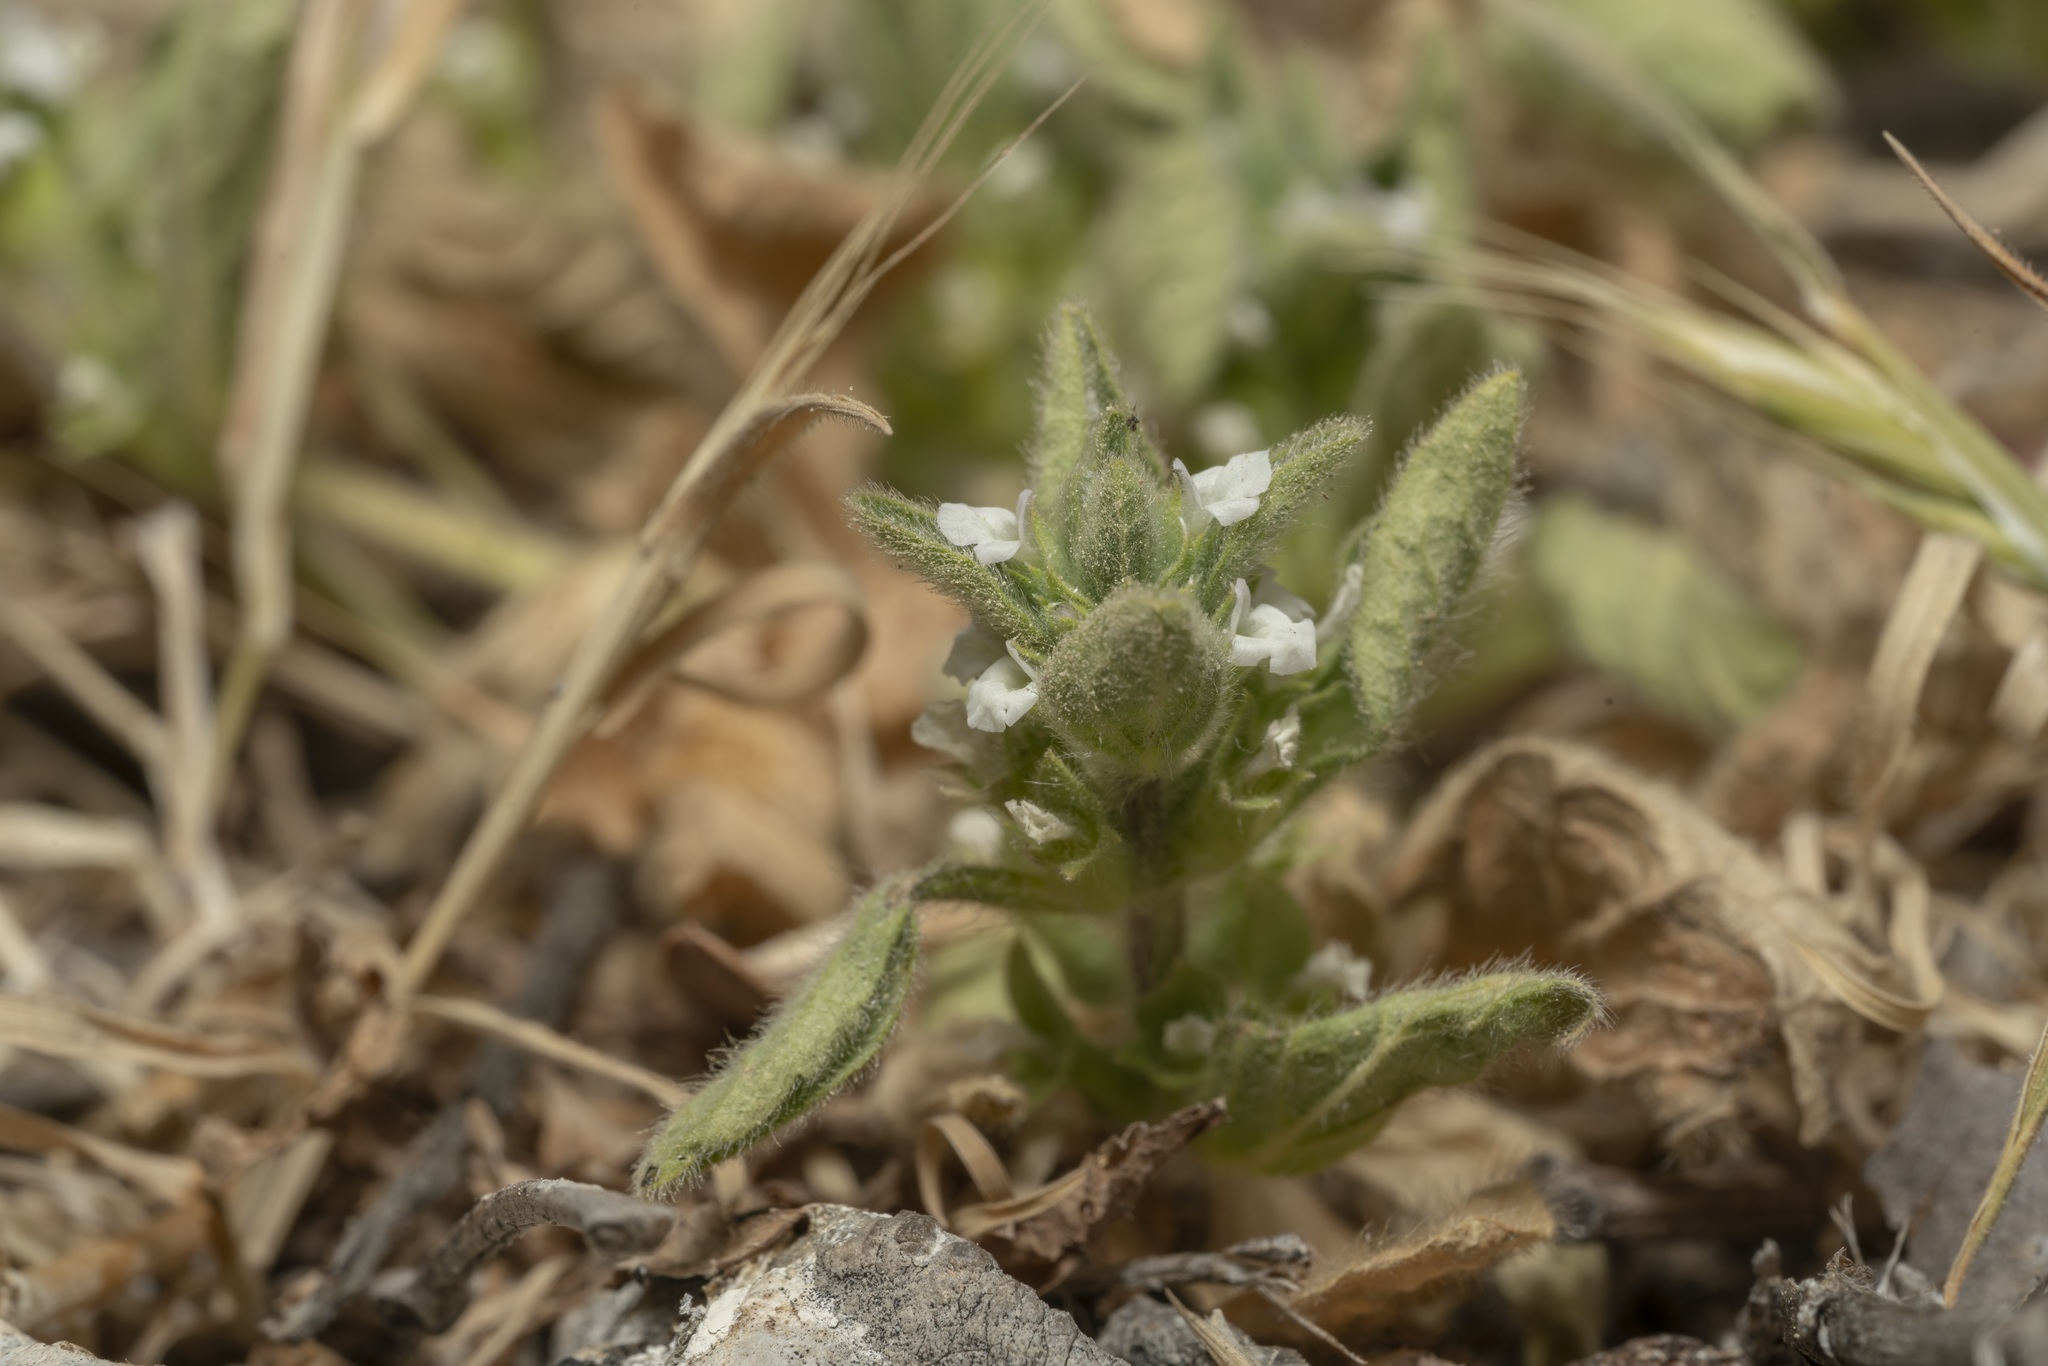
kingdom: Plantae
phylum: Tracheophyta
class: Magnoliopsida
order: Lamiales
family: Lamiaceae
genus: Sideritis
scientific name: Sideritis romana
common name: Simplebeak ironwort
